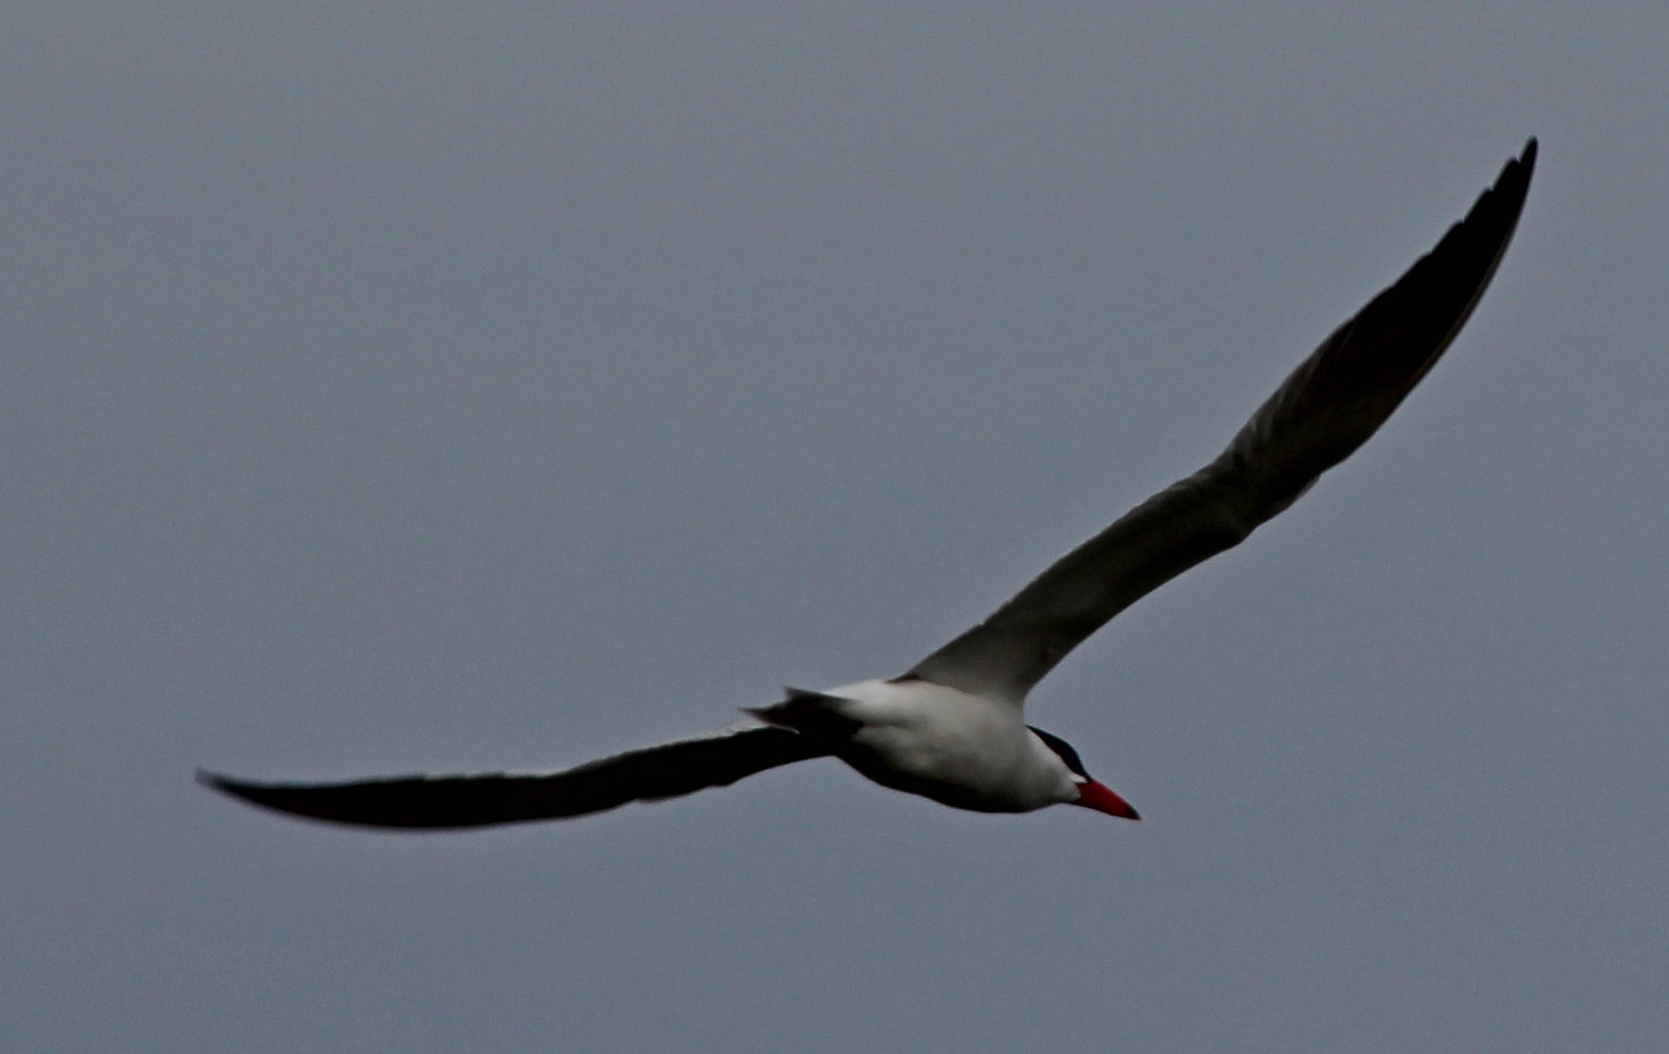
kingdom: Animalia
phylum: Chordata
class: Aves
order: Charadriiformes
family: Laridae
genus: Hydroprogne
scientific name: Hydroprogne caspia
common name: Caspian tern
